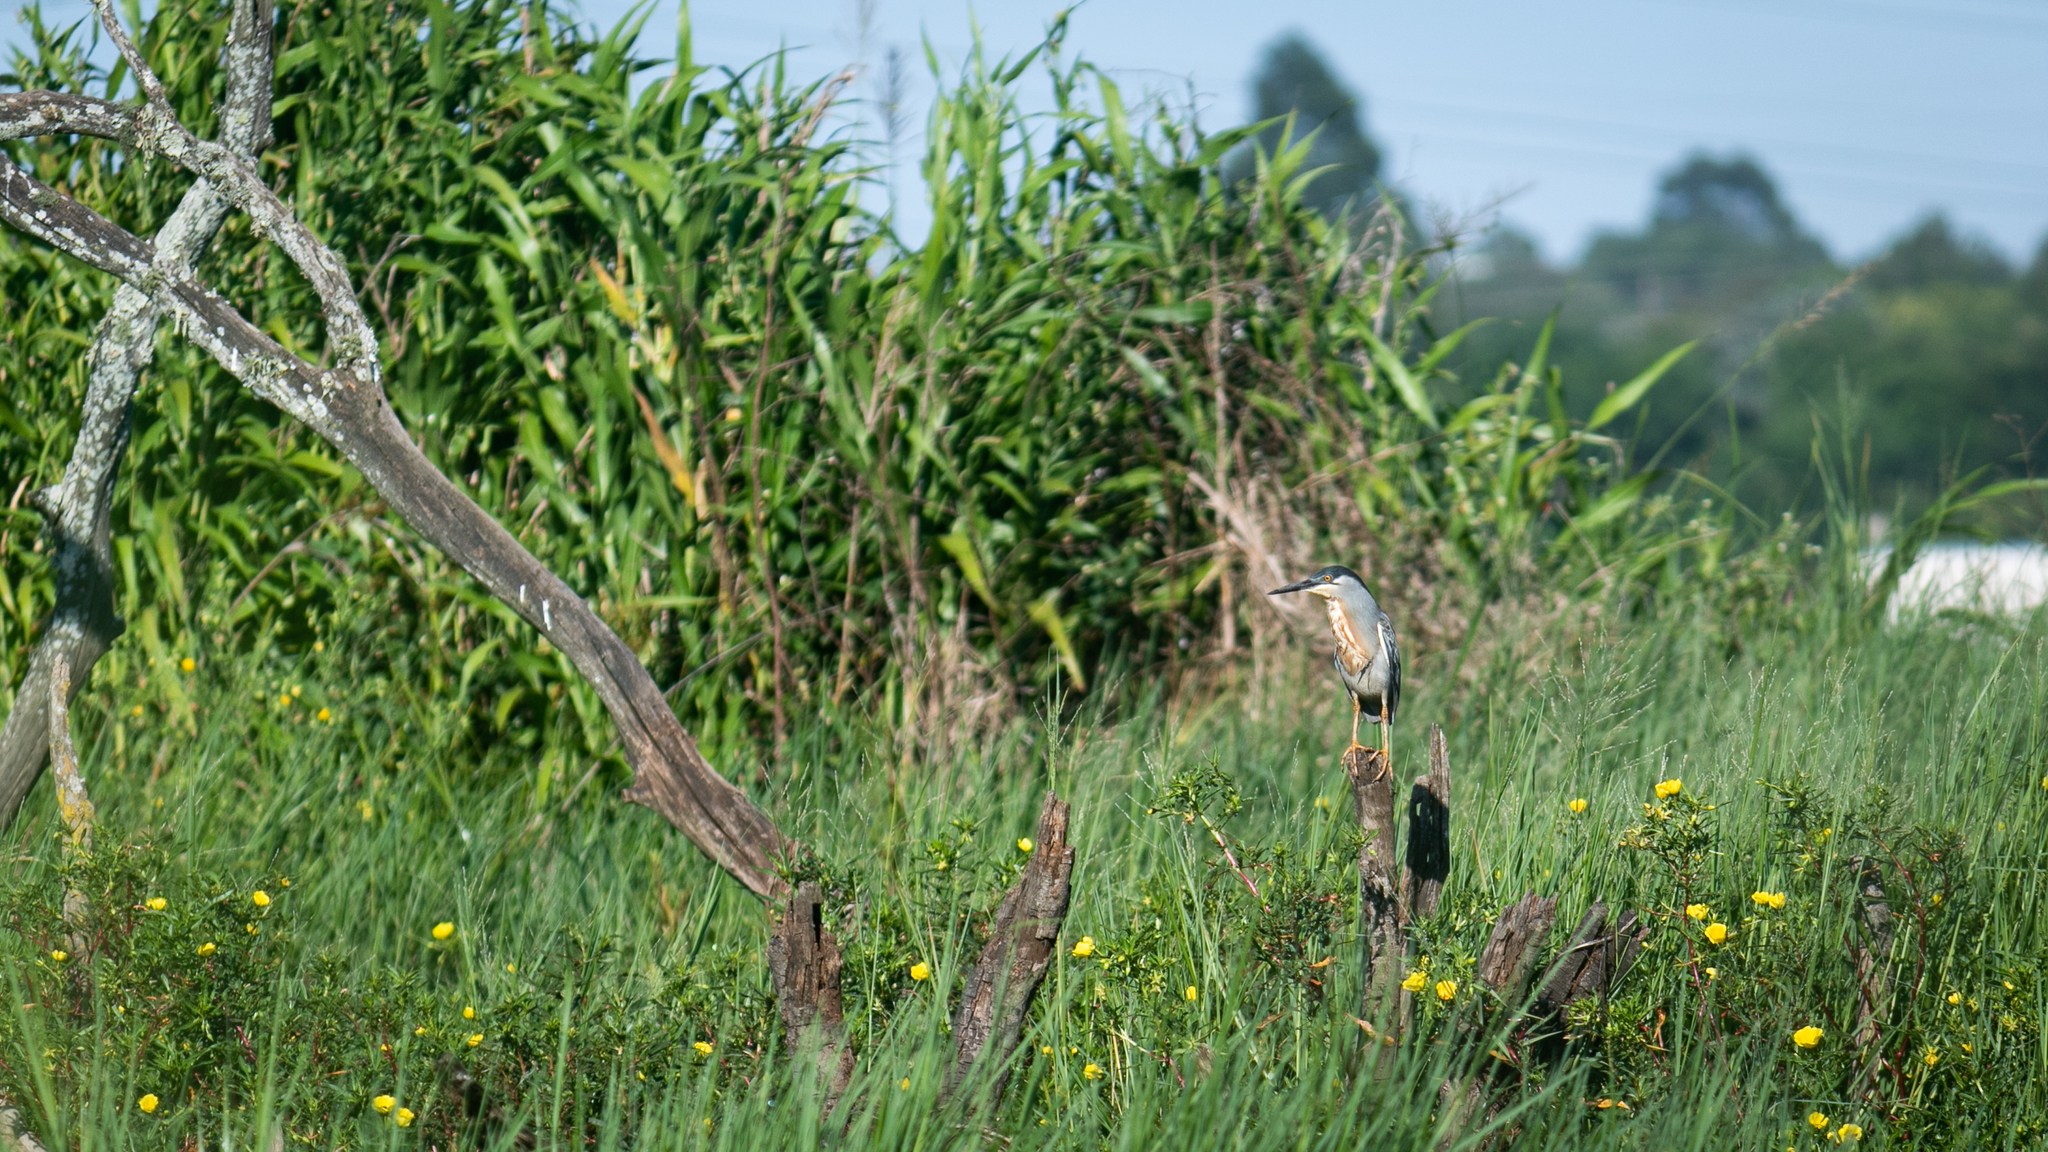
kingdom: Animalia
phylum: Chordata
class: Aves
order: Pelecaniformes
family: Ardeidae
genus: Butorides
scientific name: Butorides striata
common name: Striated heron
